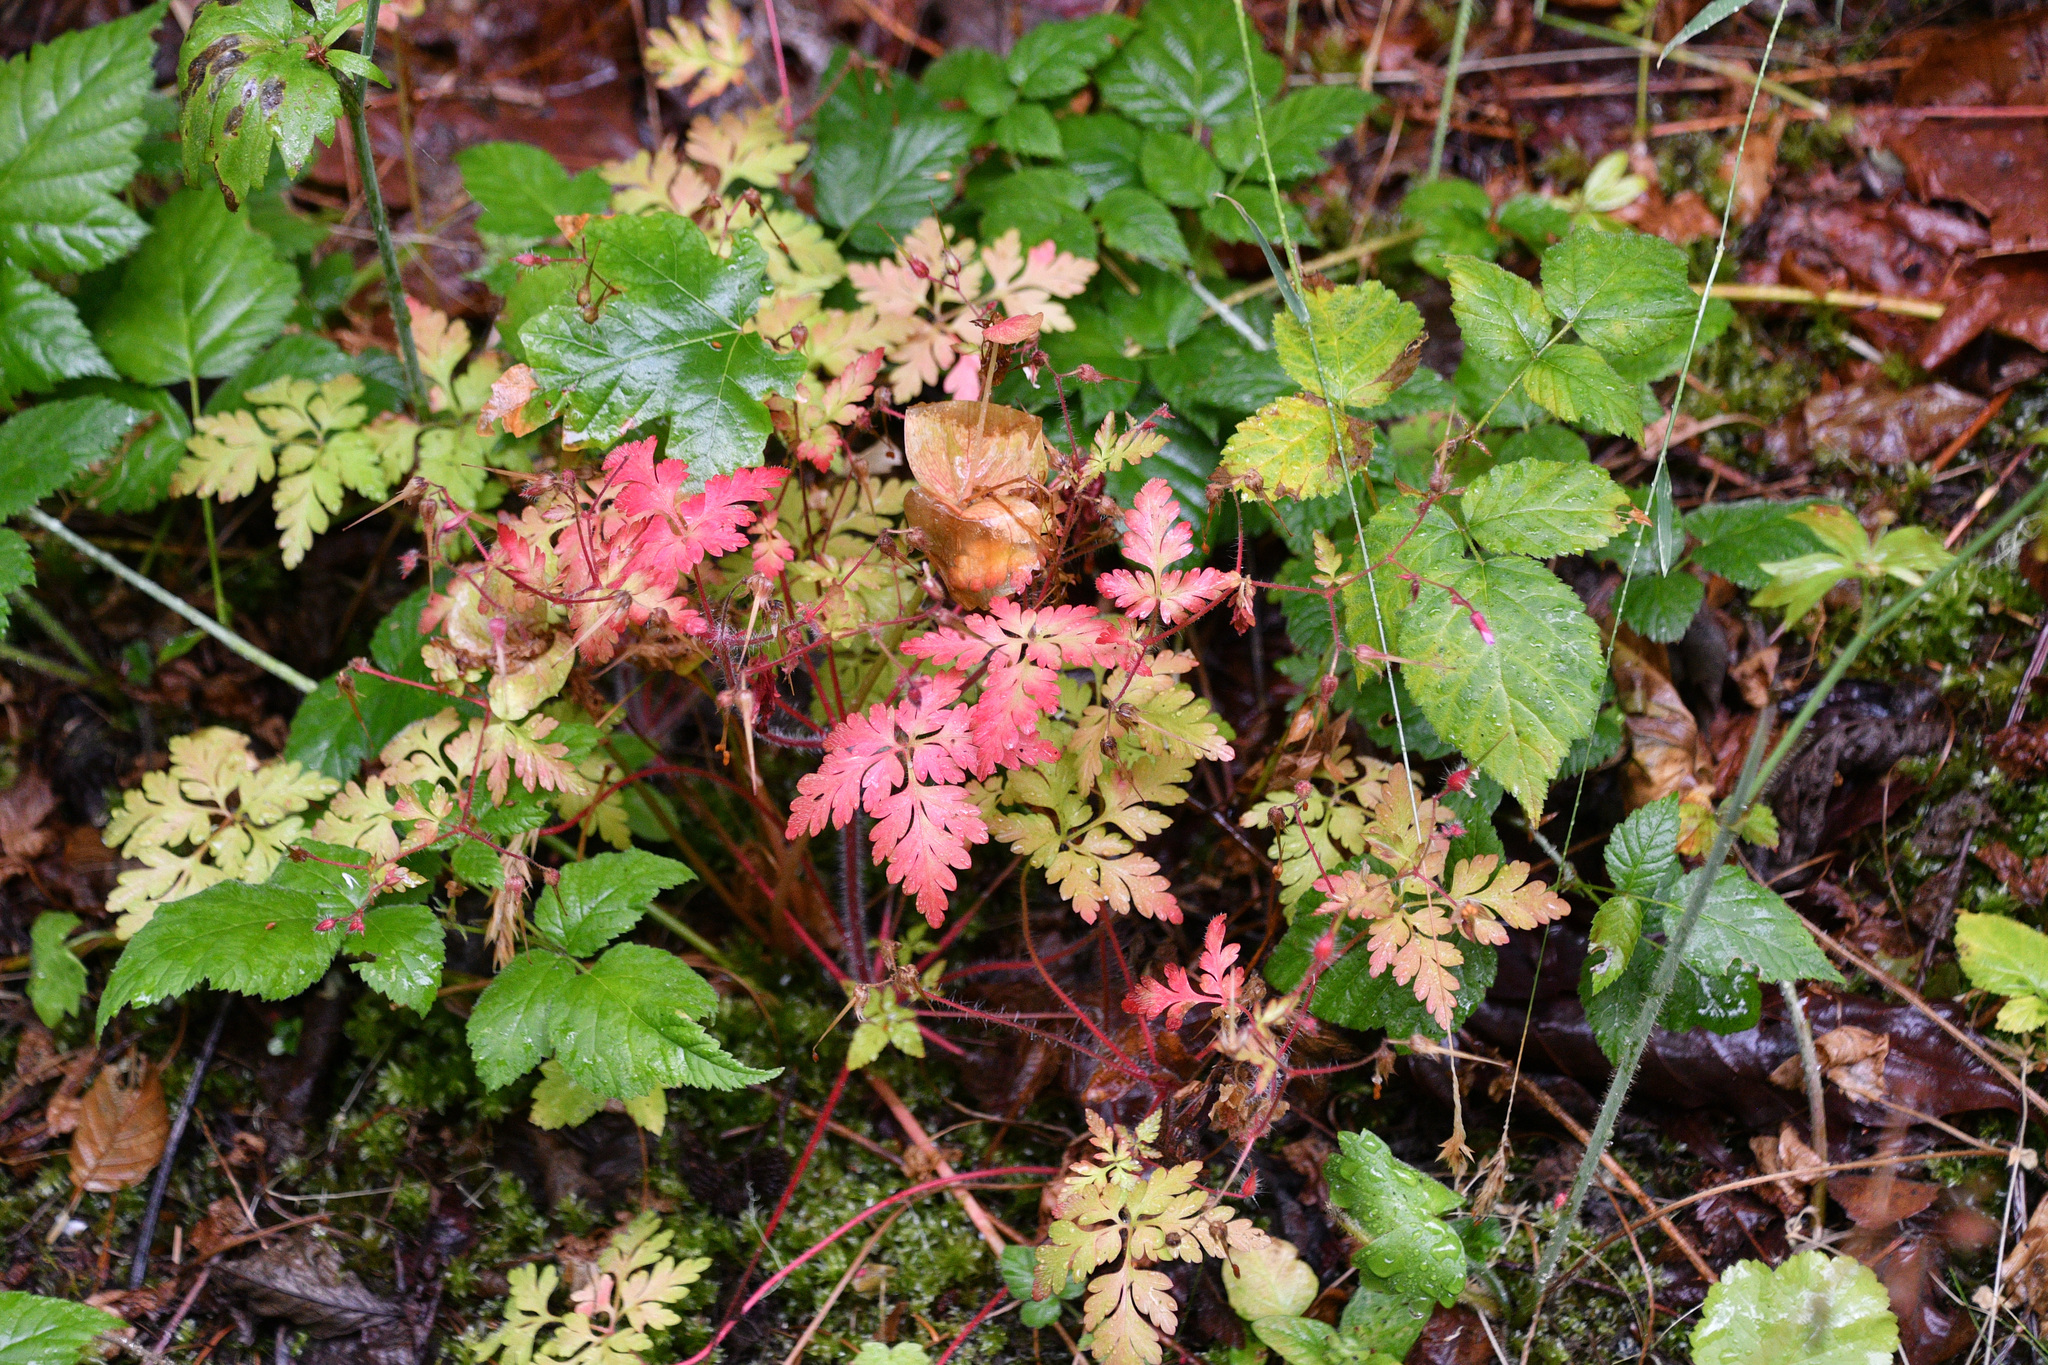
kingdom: Plantae
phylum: Tracheophyta
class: Magnoliopsida
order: Geraniales
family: Geraniaceae
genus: Geranium
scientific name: Geranium robertianum
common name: Herb-robert
